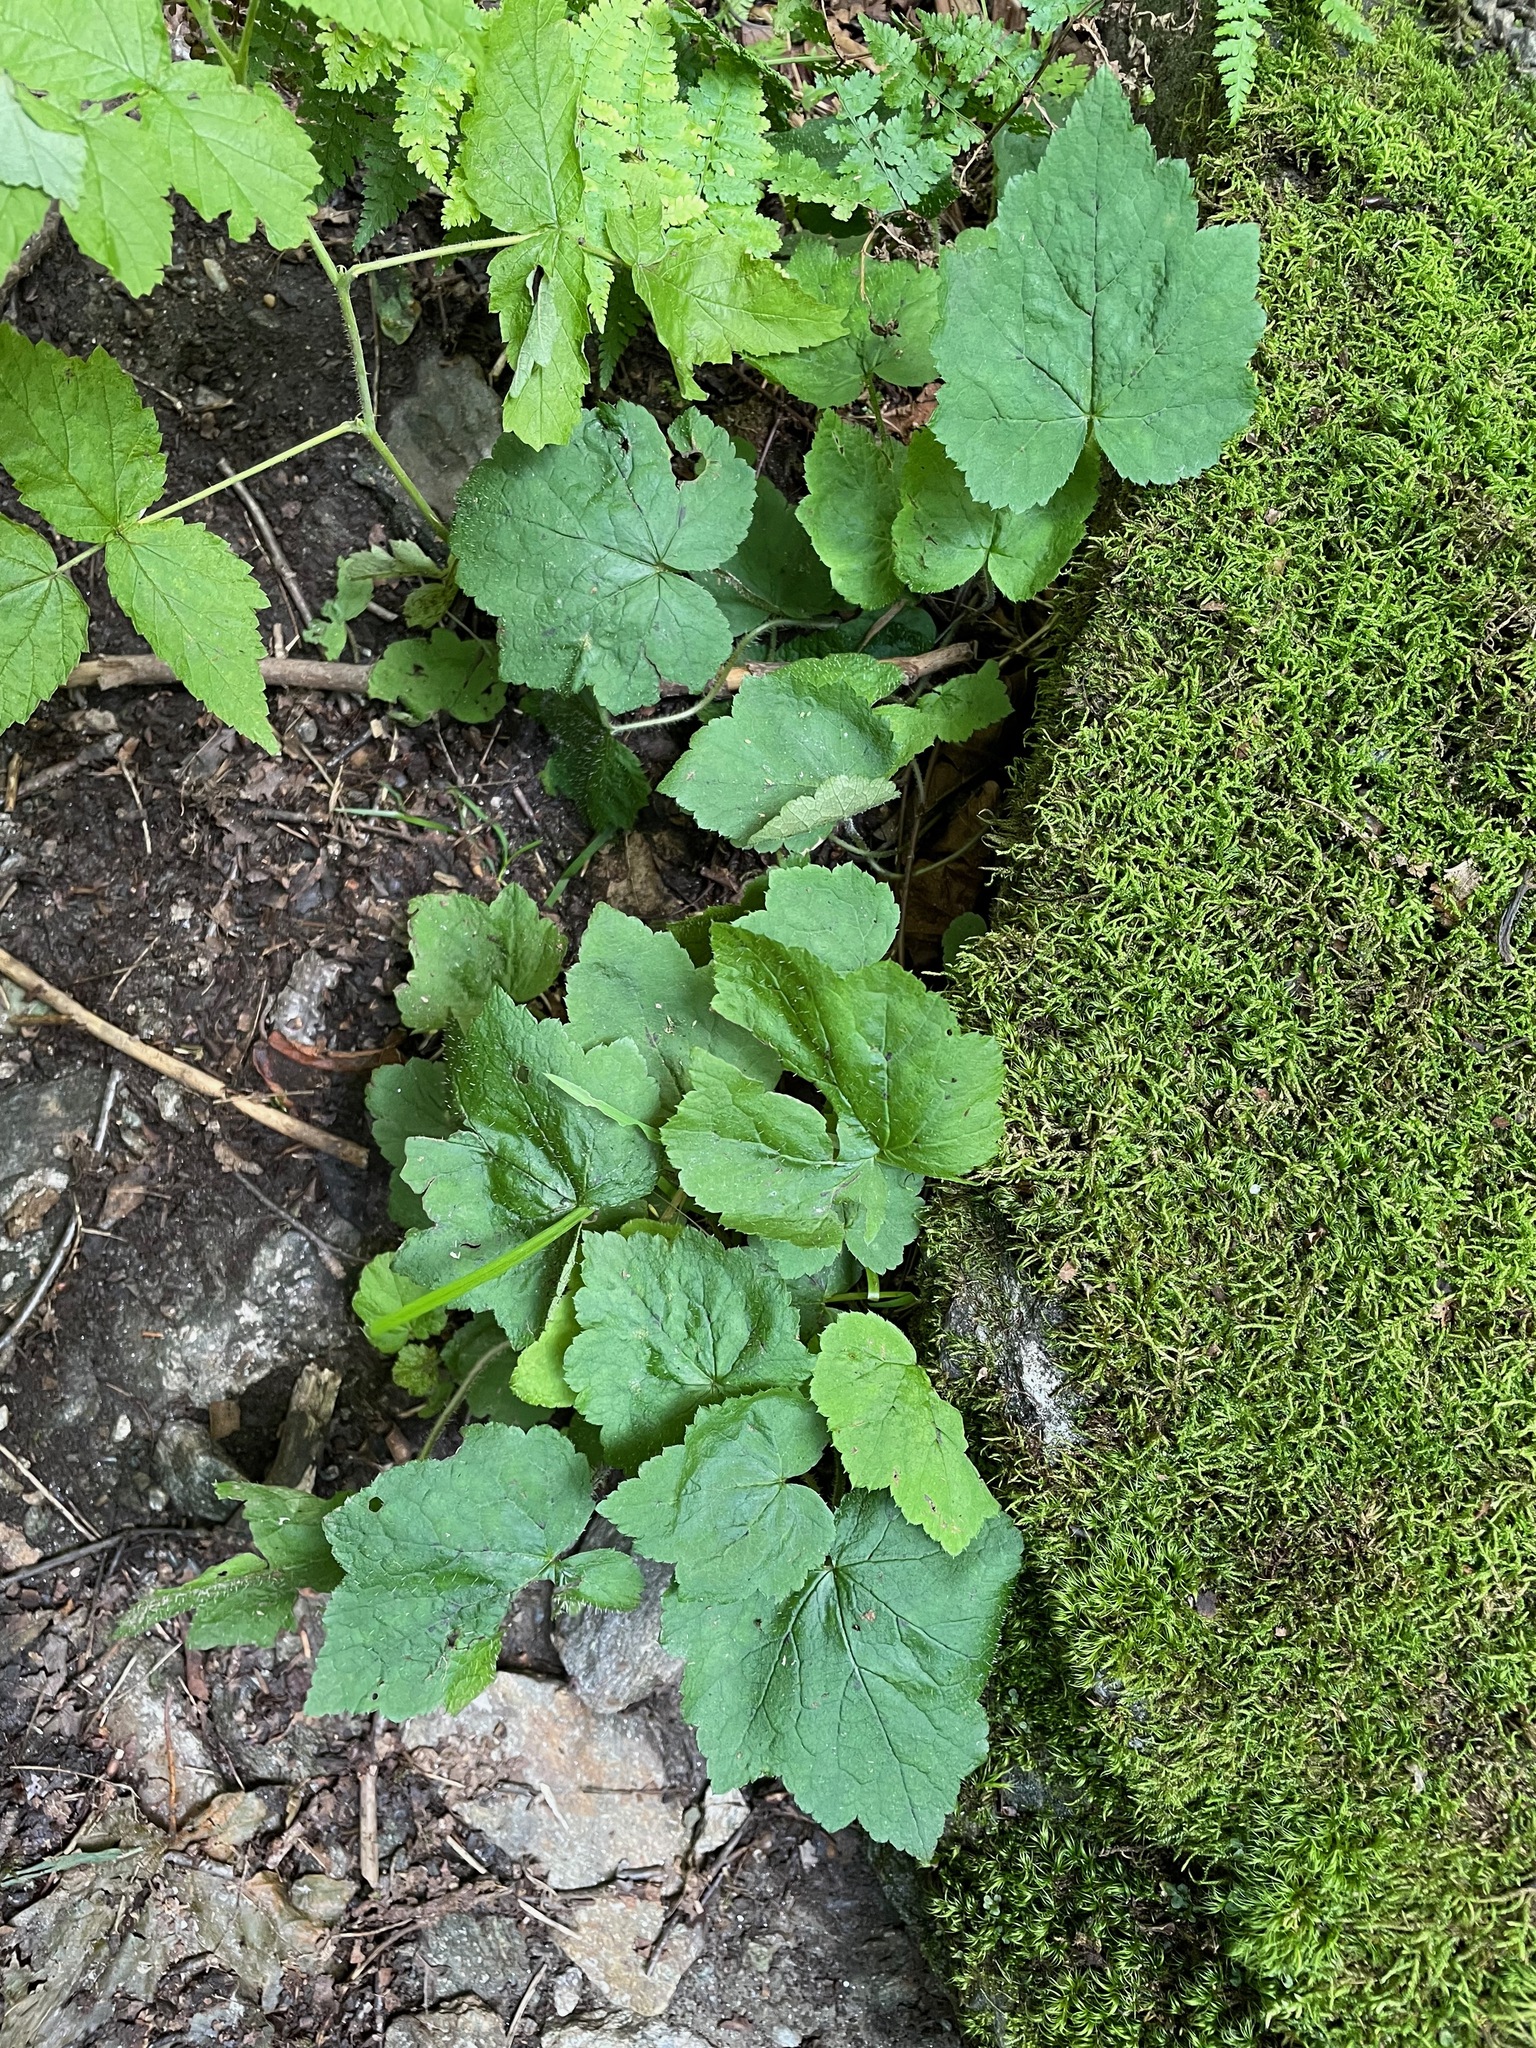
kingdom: Plantae
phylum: Tracheophyta
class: Magnoliopsida
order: Saxifragales
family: Saxifragaceae
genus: Tiarella
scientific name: Tiarella stolonifera
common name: Stoloniferous foamflower
